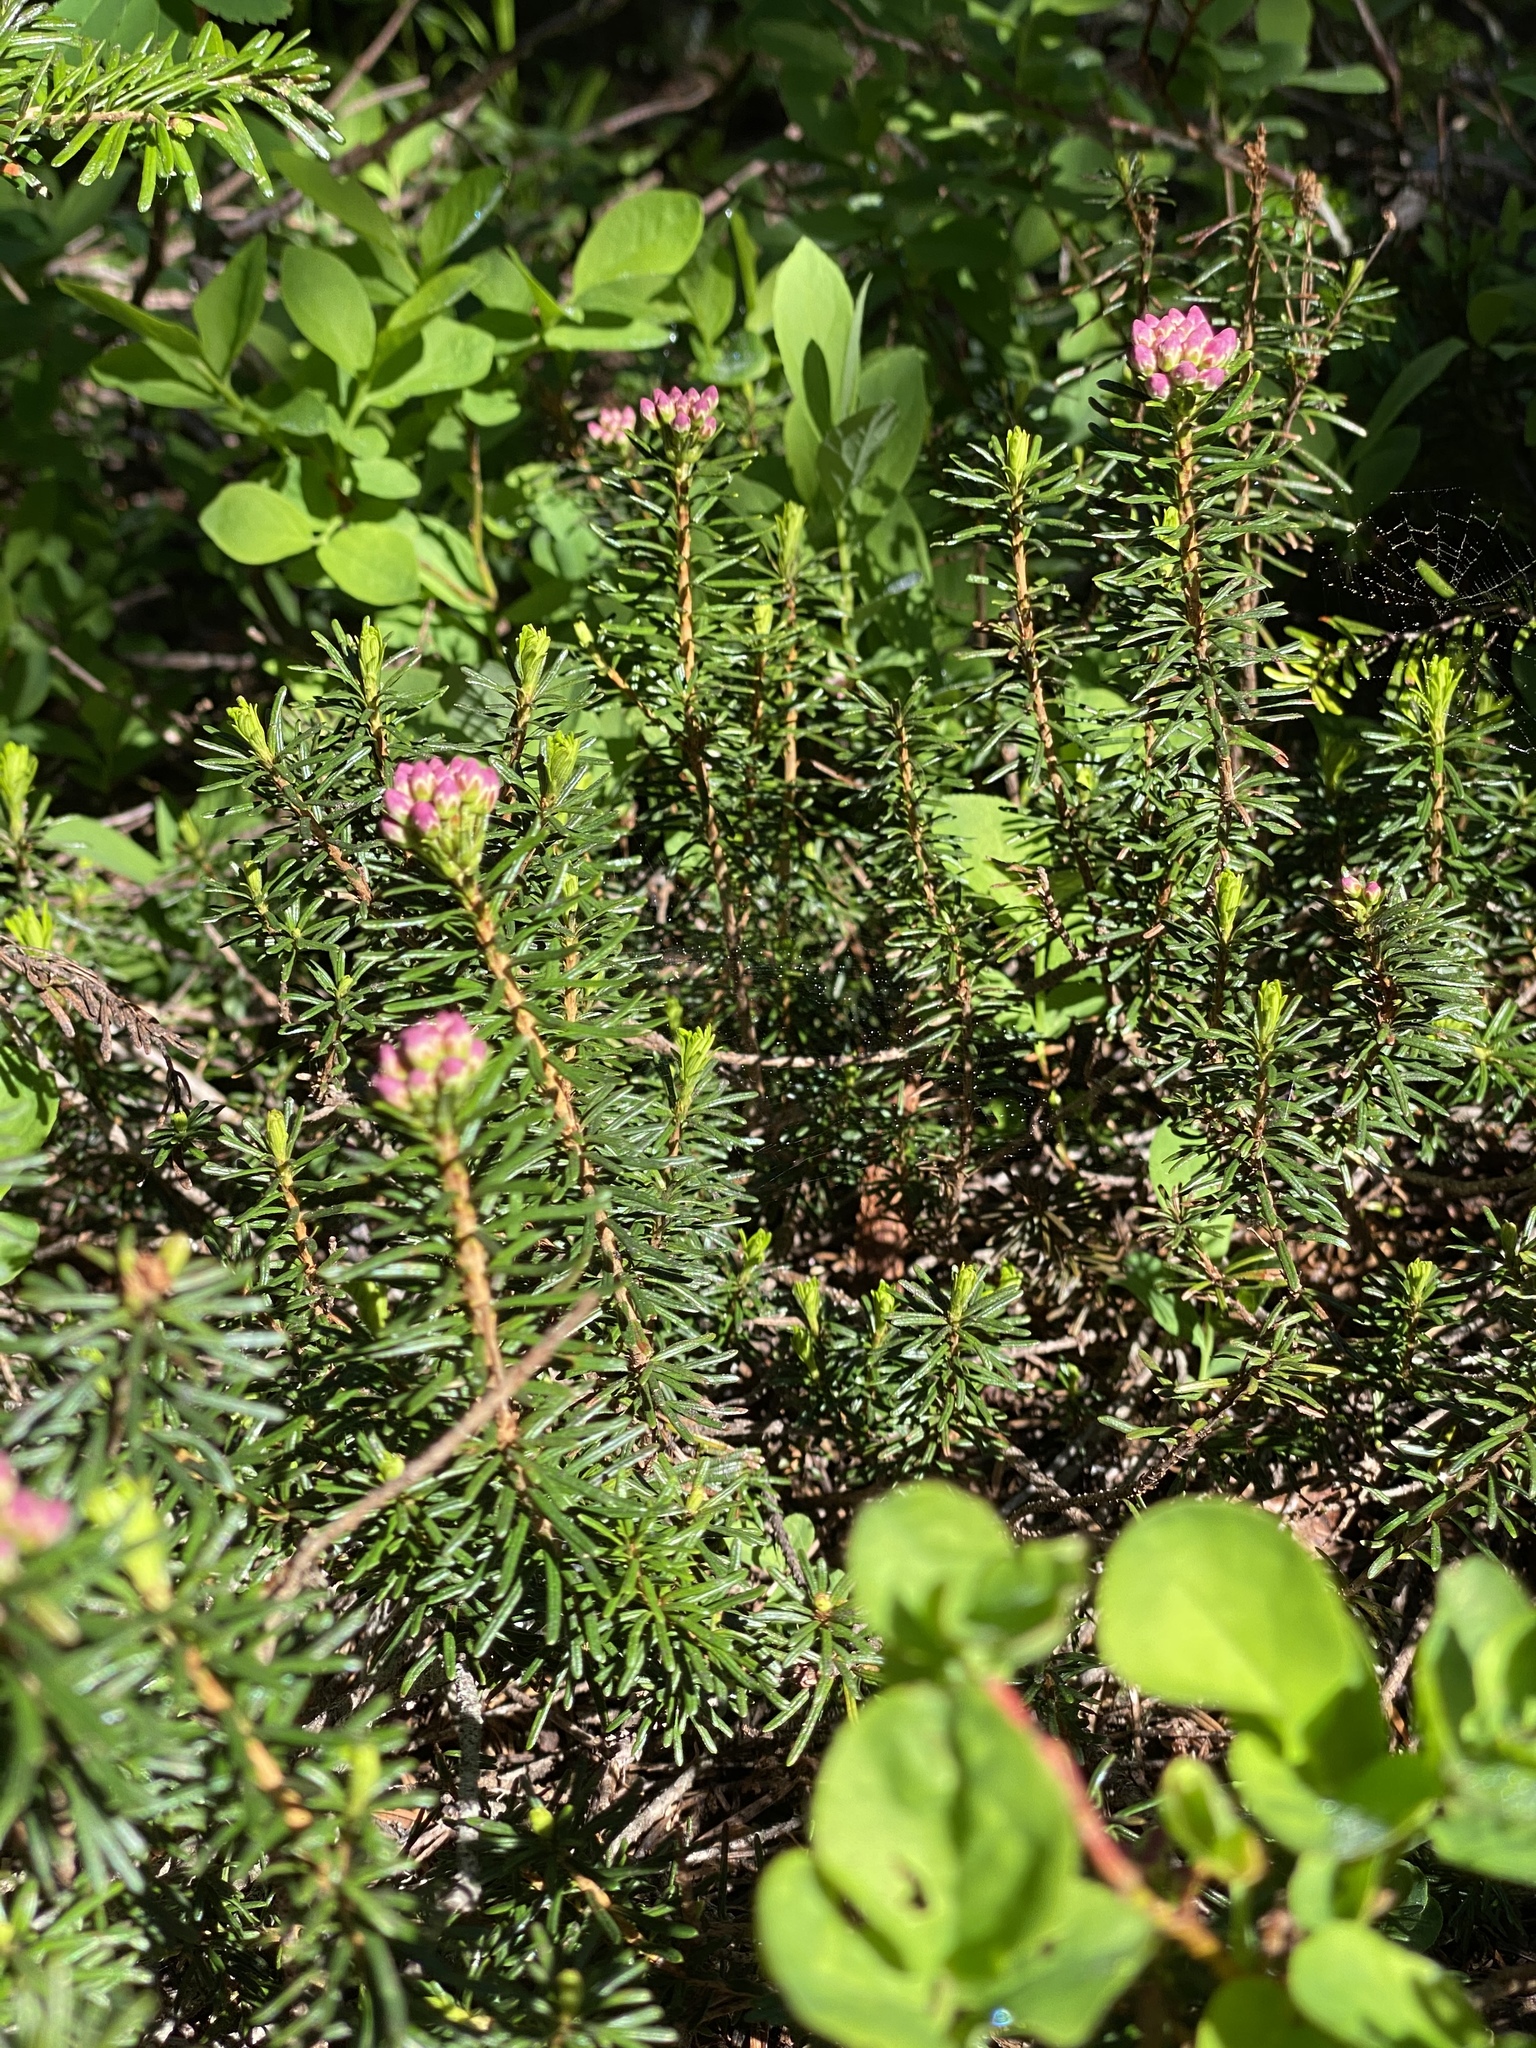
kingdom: Plantae
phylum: Tracheophyta
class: Magnoliopsida
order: Ericales
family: Ericaceae
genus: Phyllodoce
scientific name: Phyllodoce empetriformis
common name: Pink mountain heather
